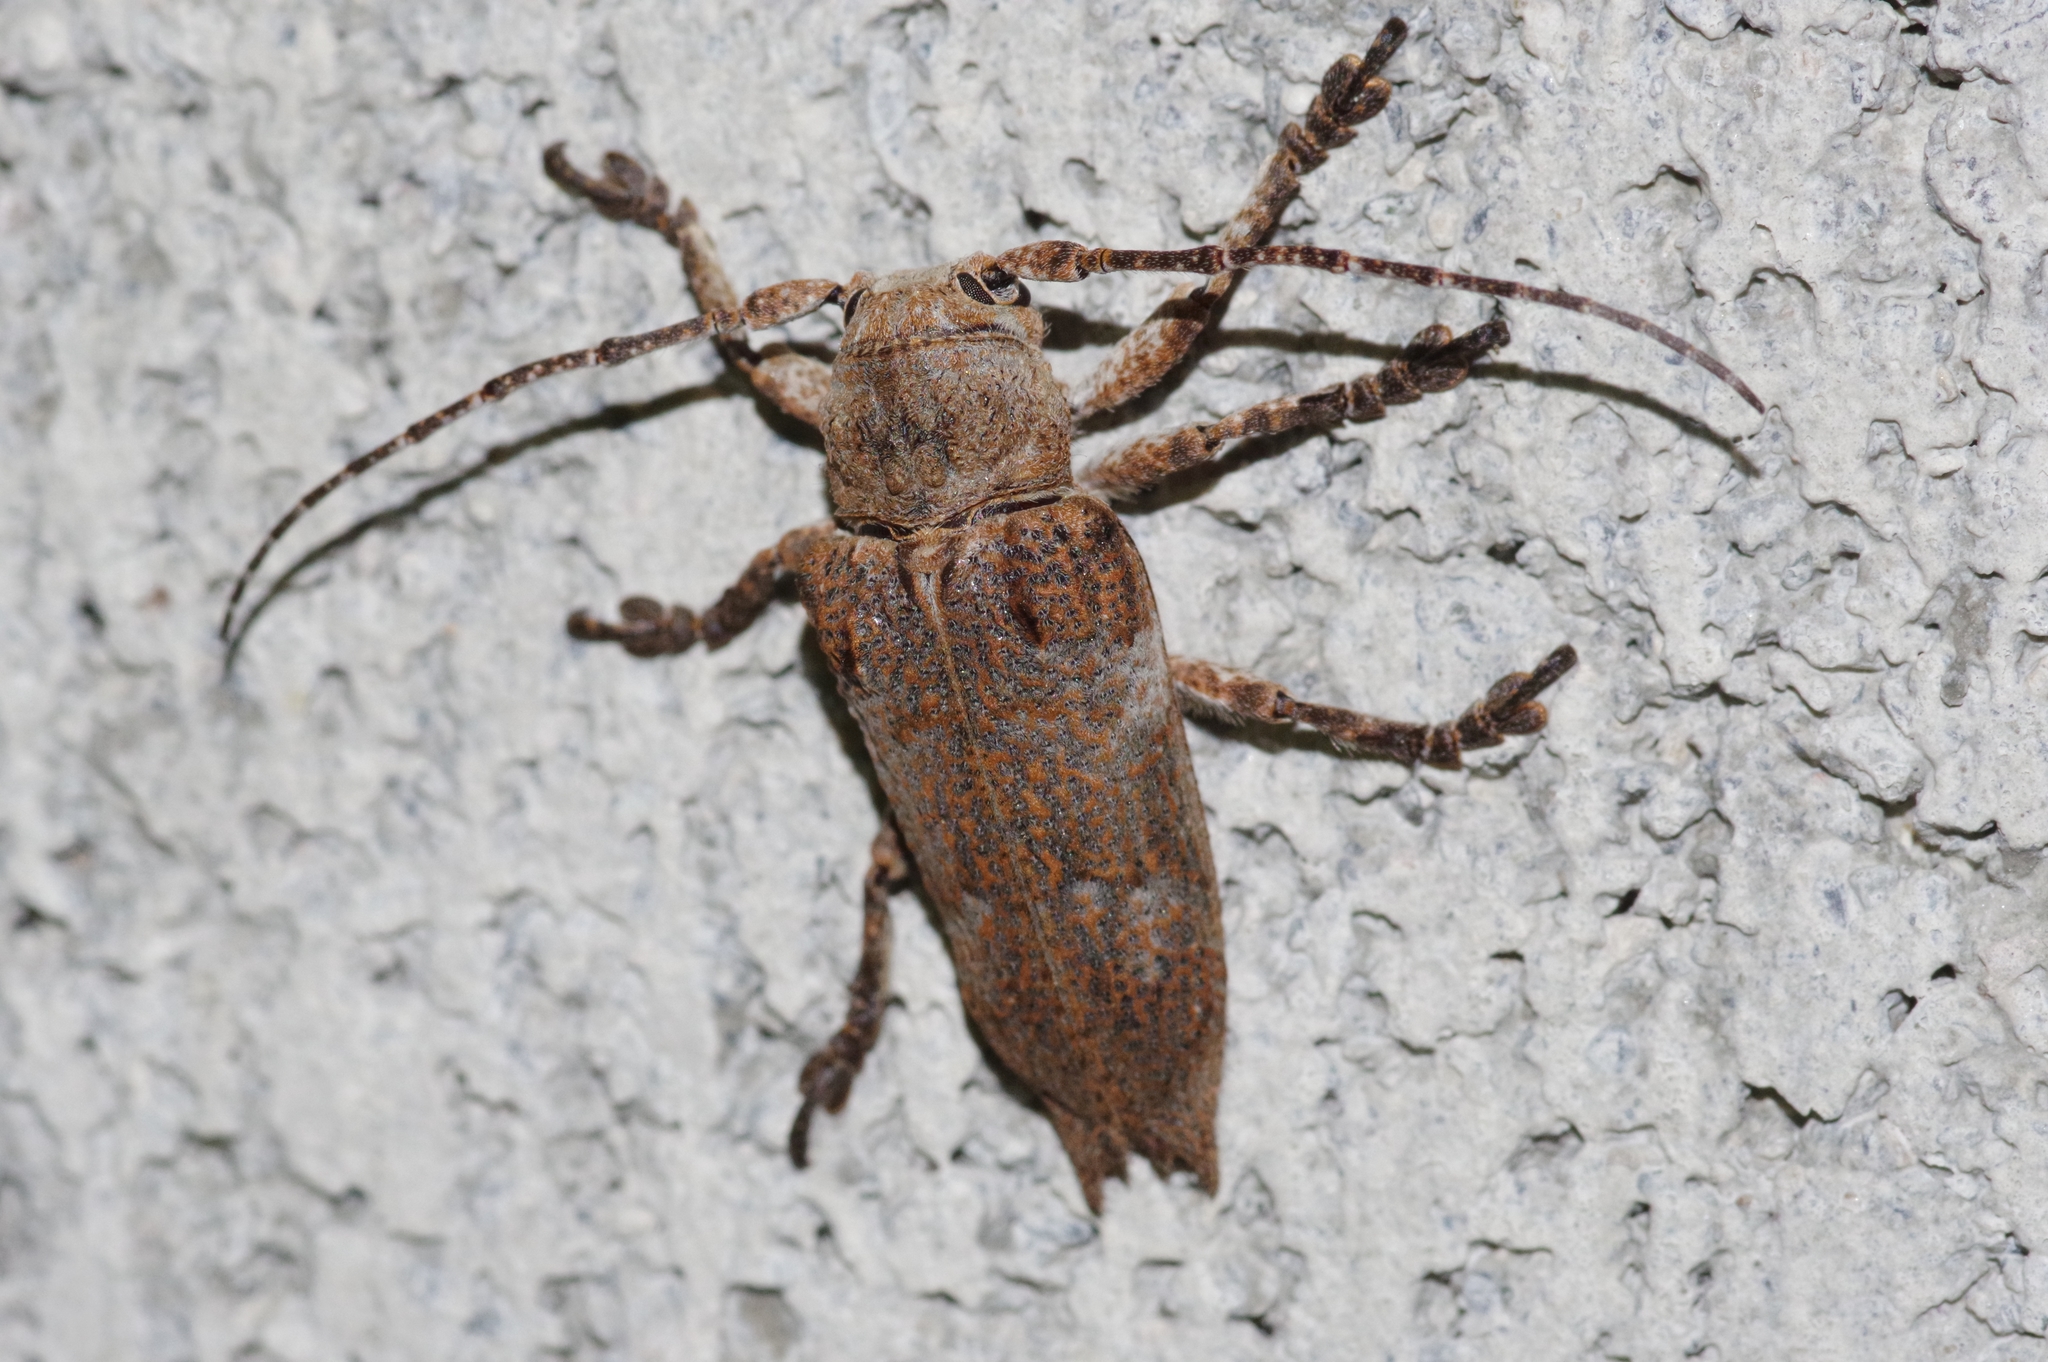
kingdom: Animalia
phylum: Arthropoda
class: Insecta
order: Coleoptera
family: Cerambycidae
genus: Niphona
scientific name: Niphona yanoi
